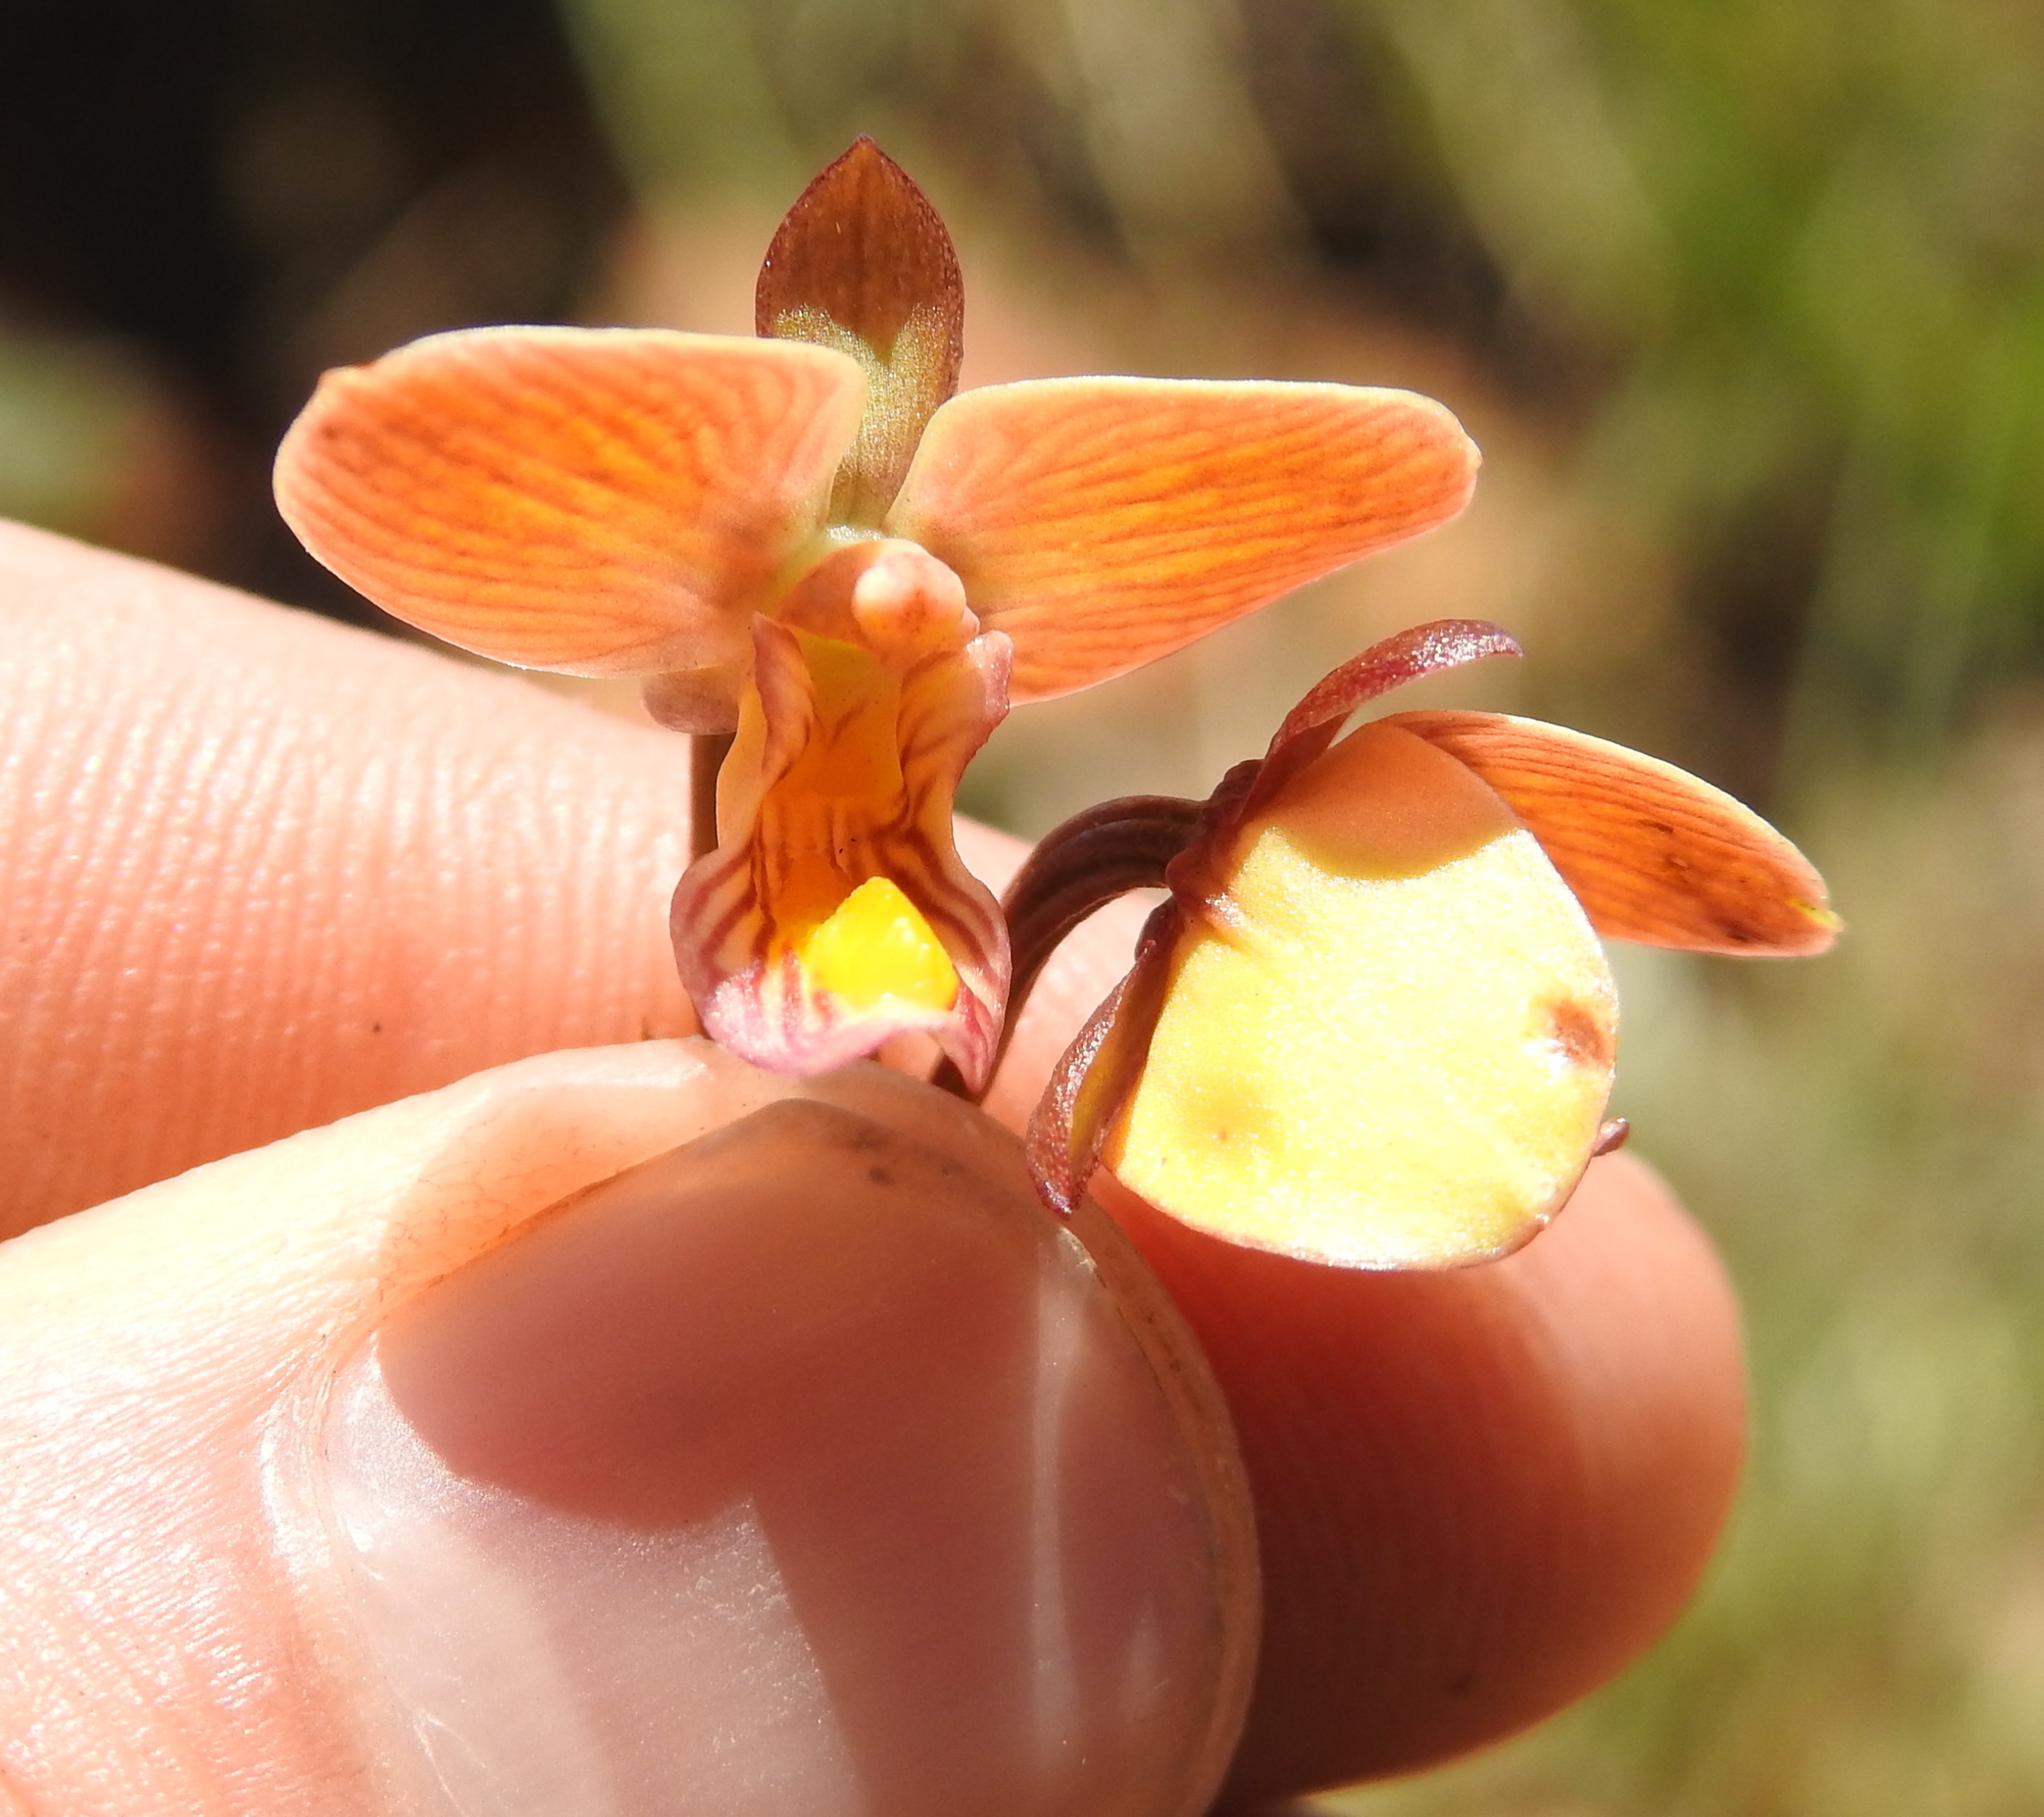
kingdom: Plantae
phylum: Tracheophyta
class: Liliopsida
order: Asparagales
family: Orchidaceae
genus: Eulophia
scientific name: Eulophia tuberculata
